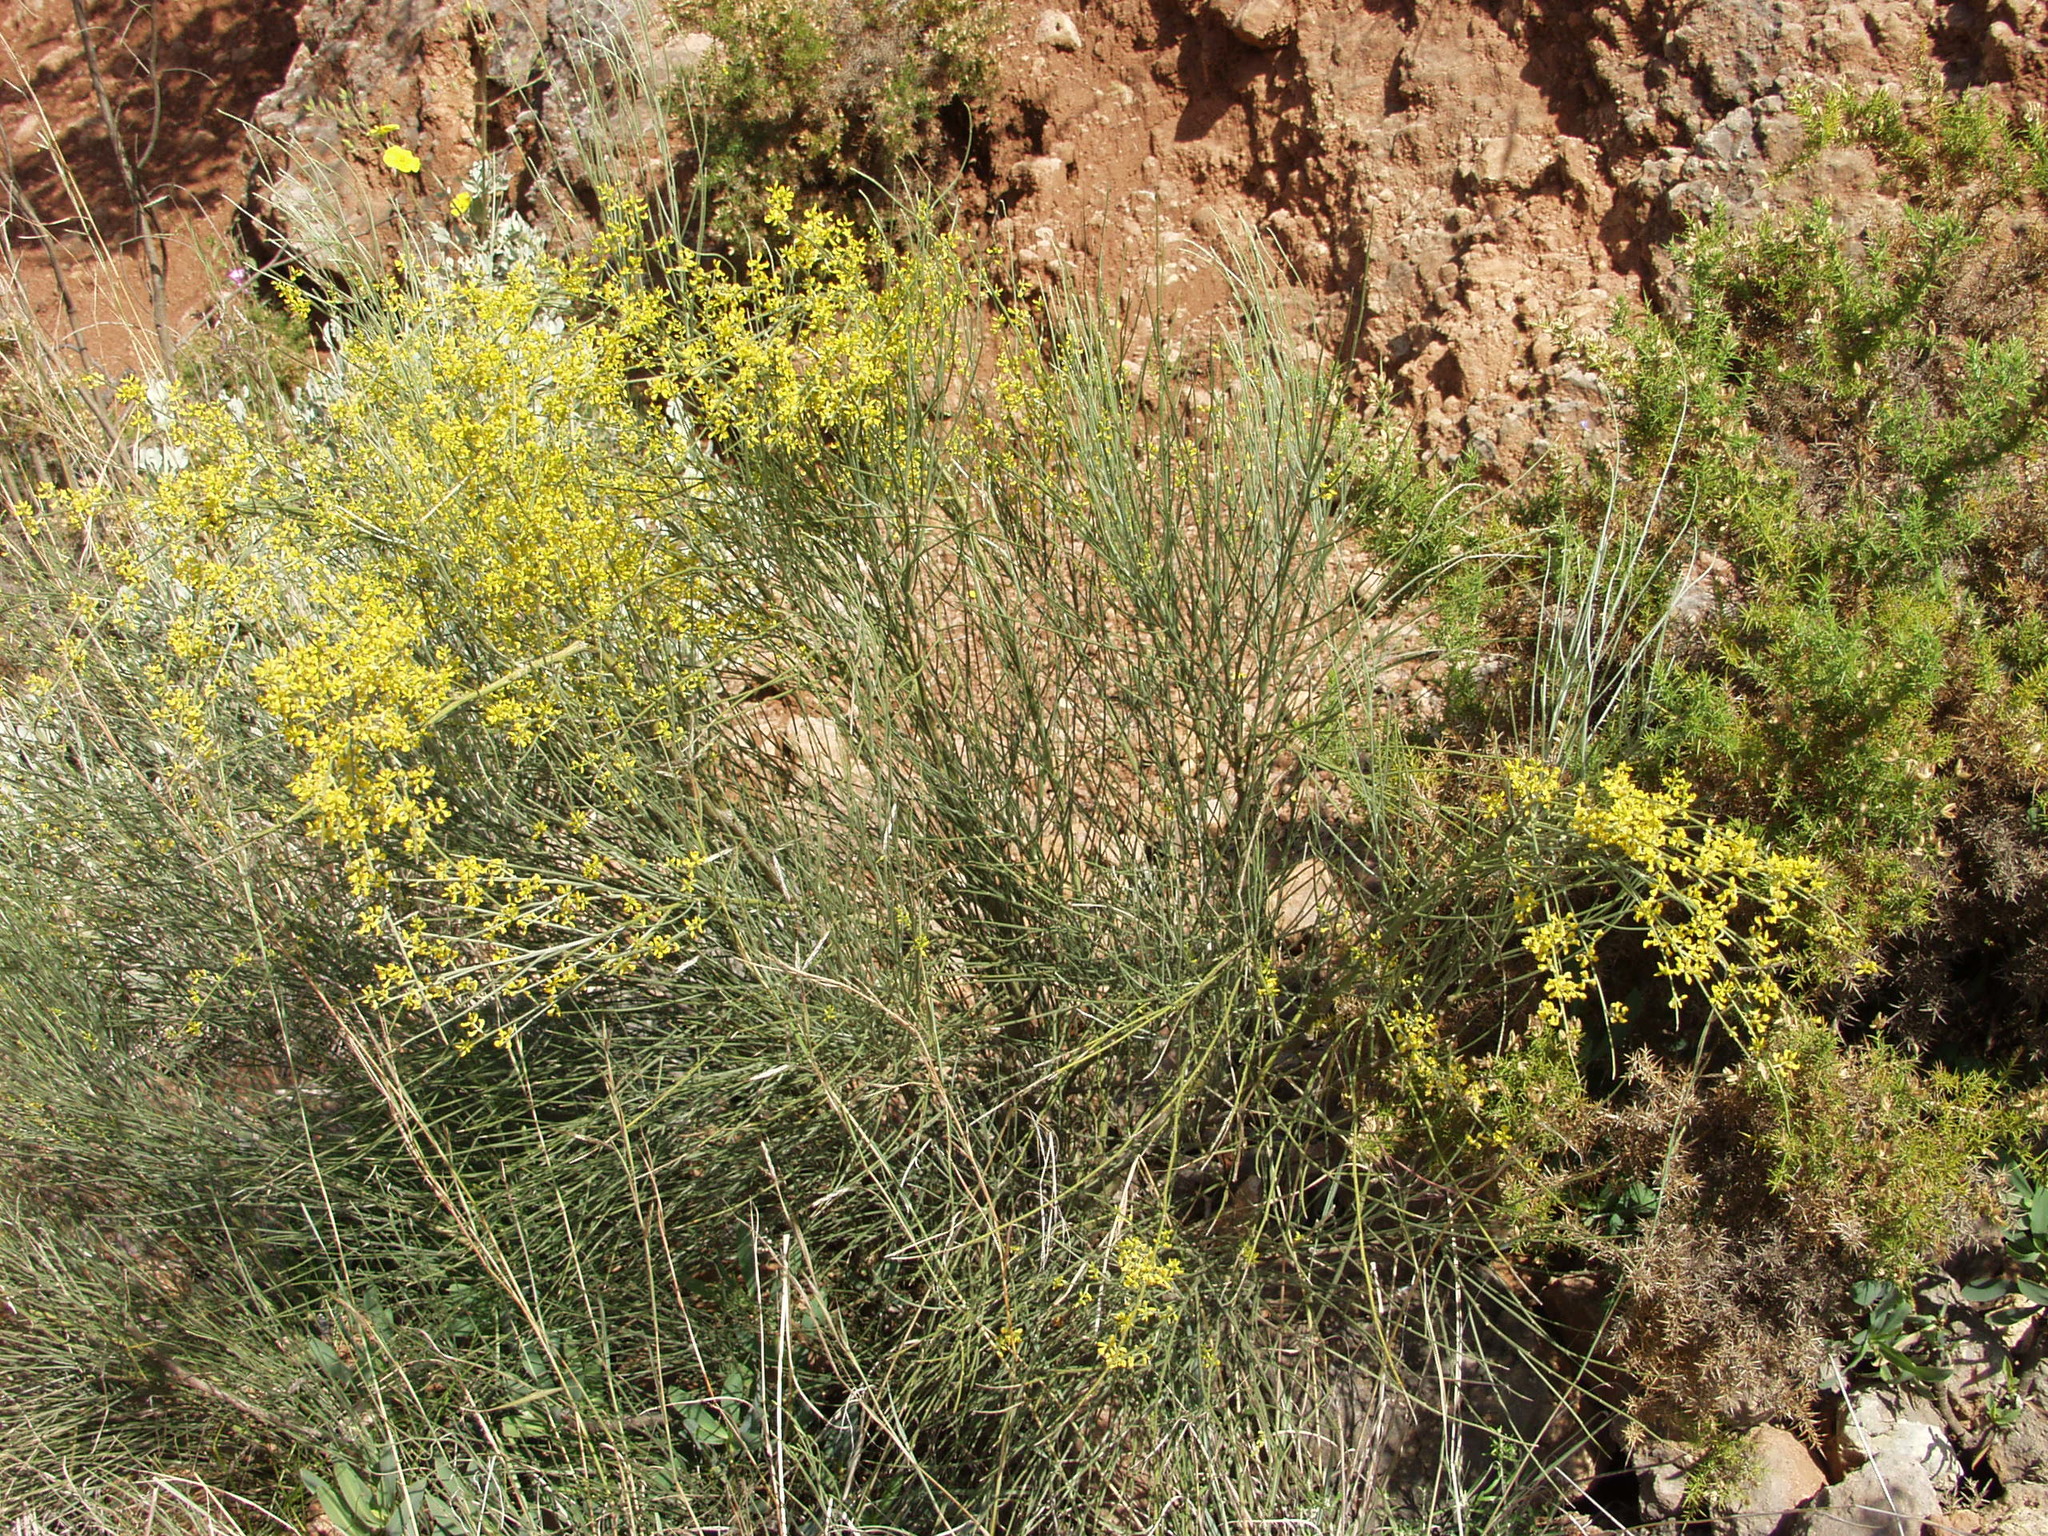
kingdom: Plantae
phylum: Tracheophyta
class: Magnoliopsida
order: Fabales
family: Fabaceae
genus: Retama
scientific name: Retama sphaerocarpa
